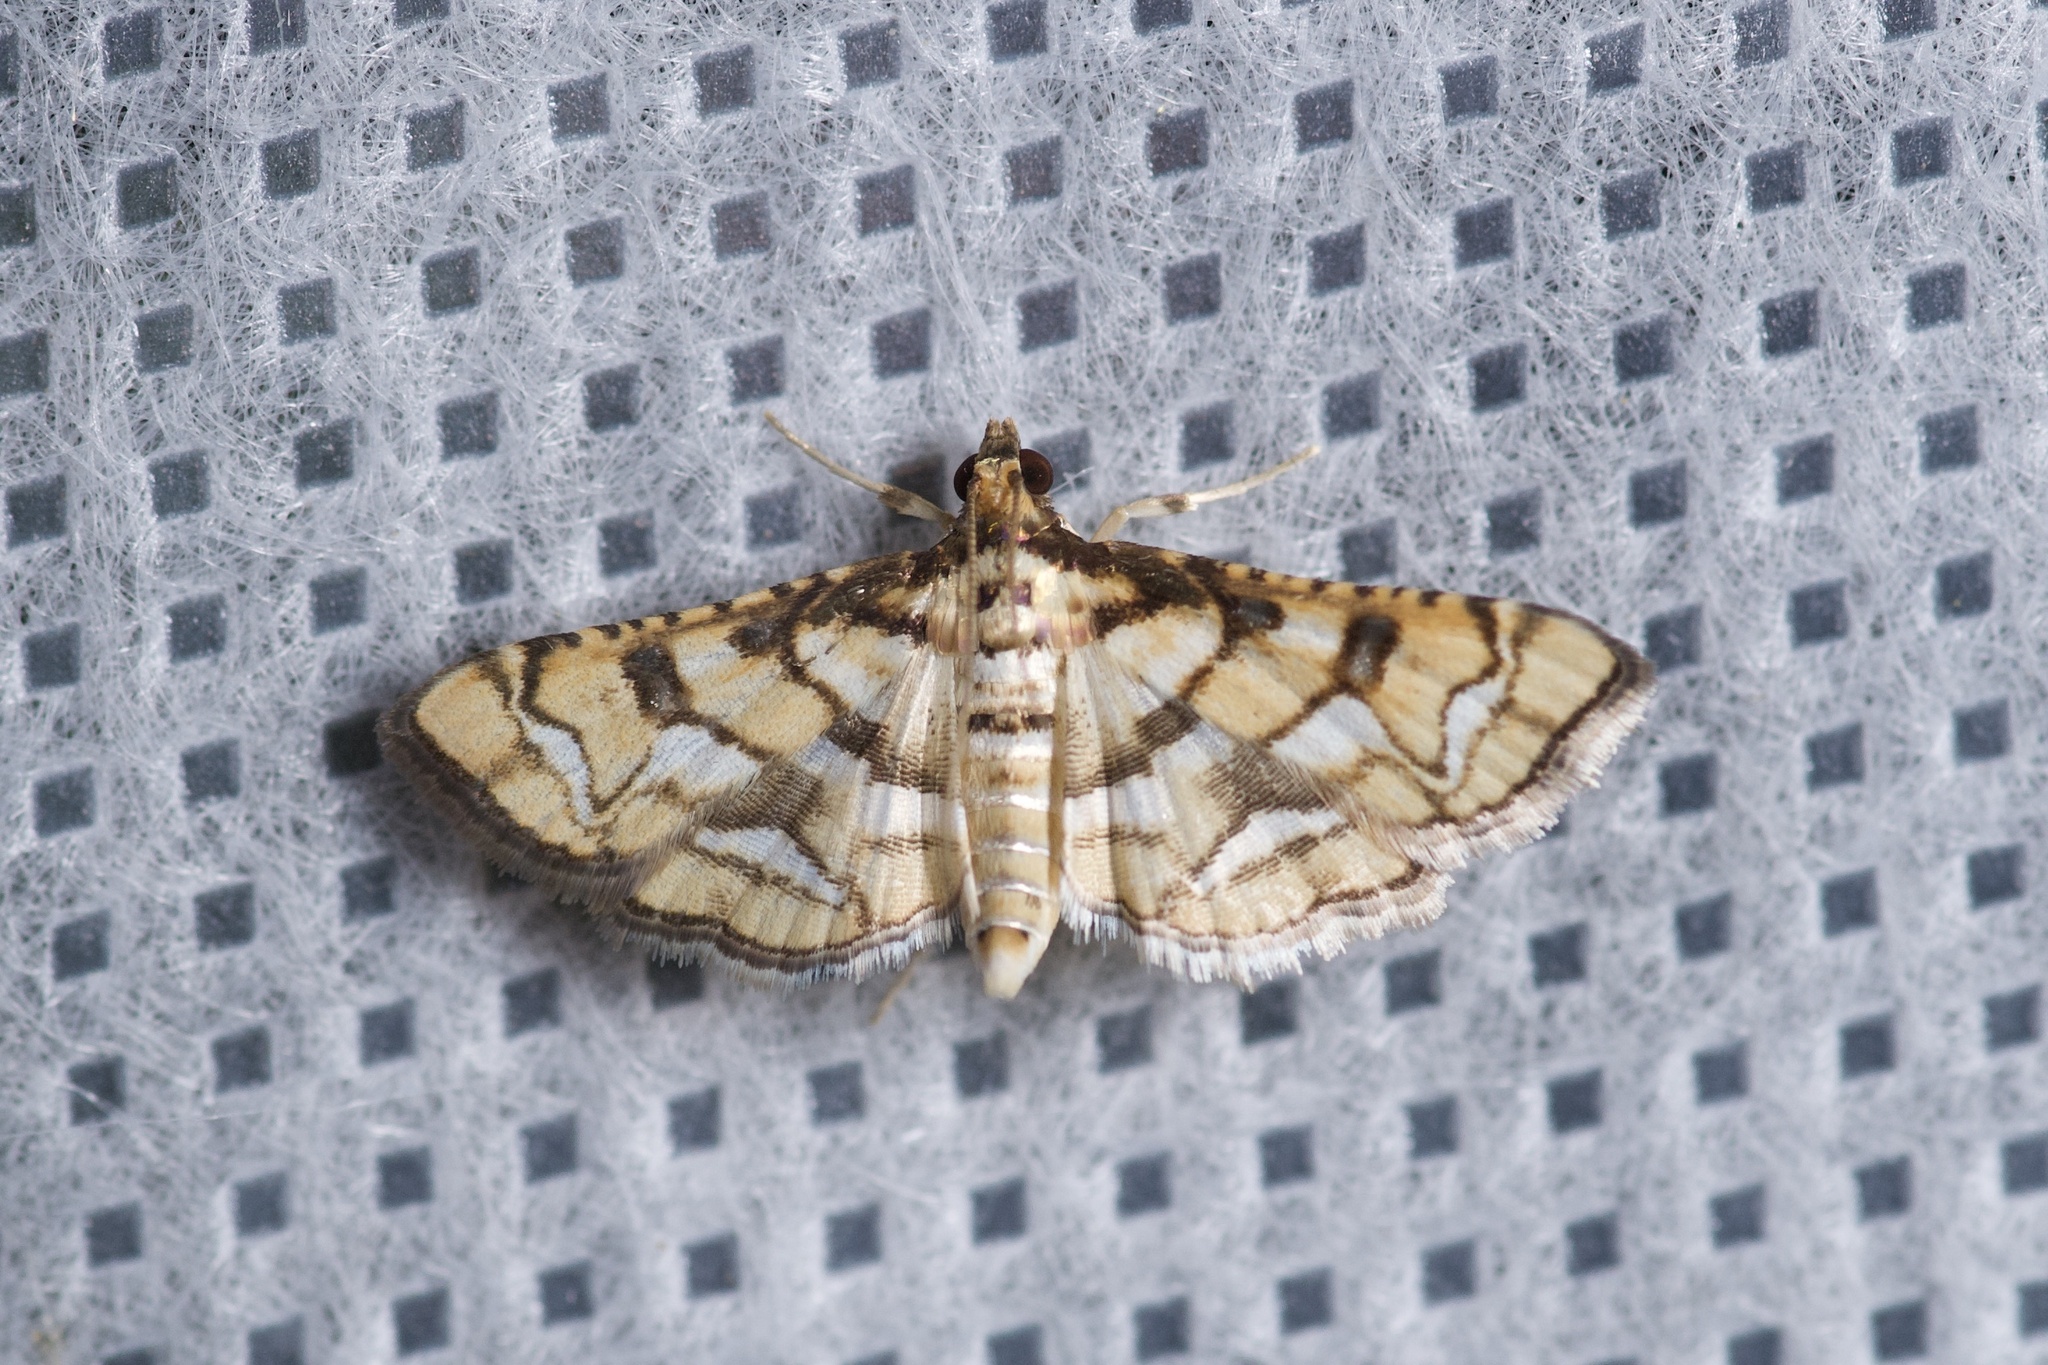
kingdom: Animalia
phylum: Arthropoda
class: Insecta
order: Lepidoptera
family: Crambidae
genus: Hileithia
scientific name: Hileithia magualis
